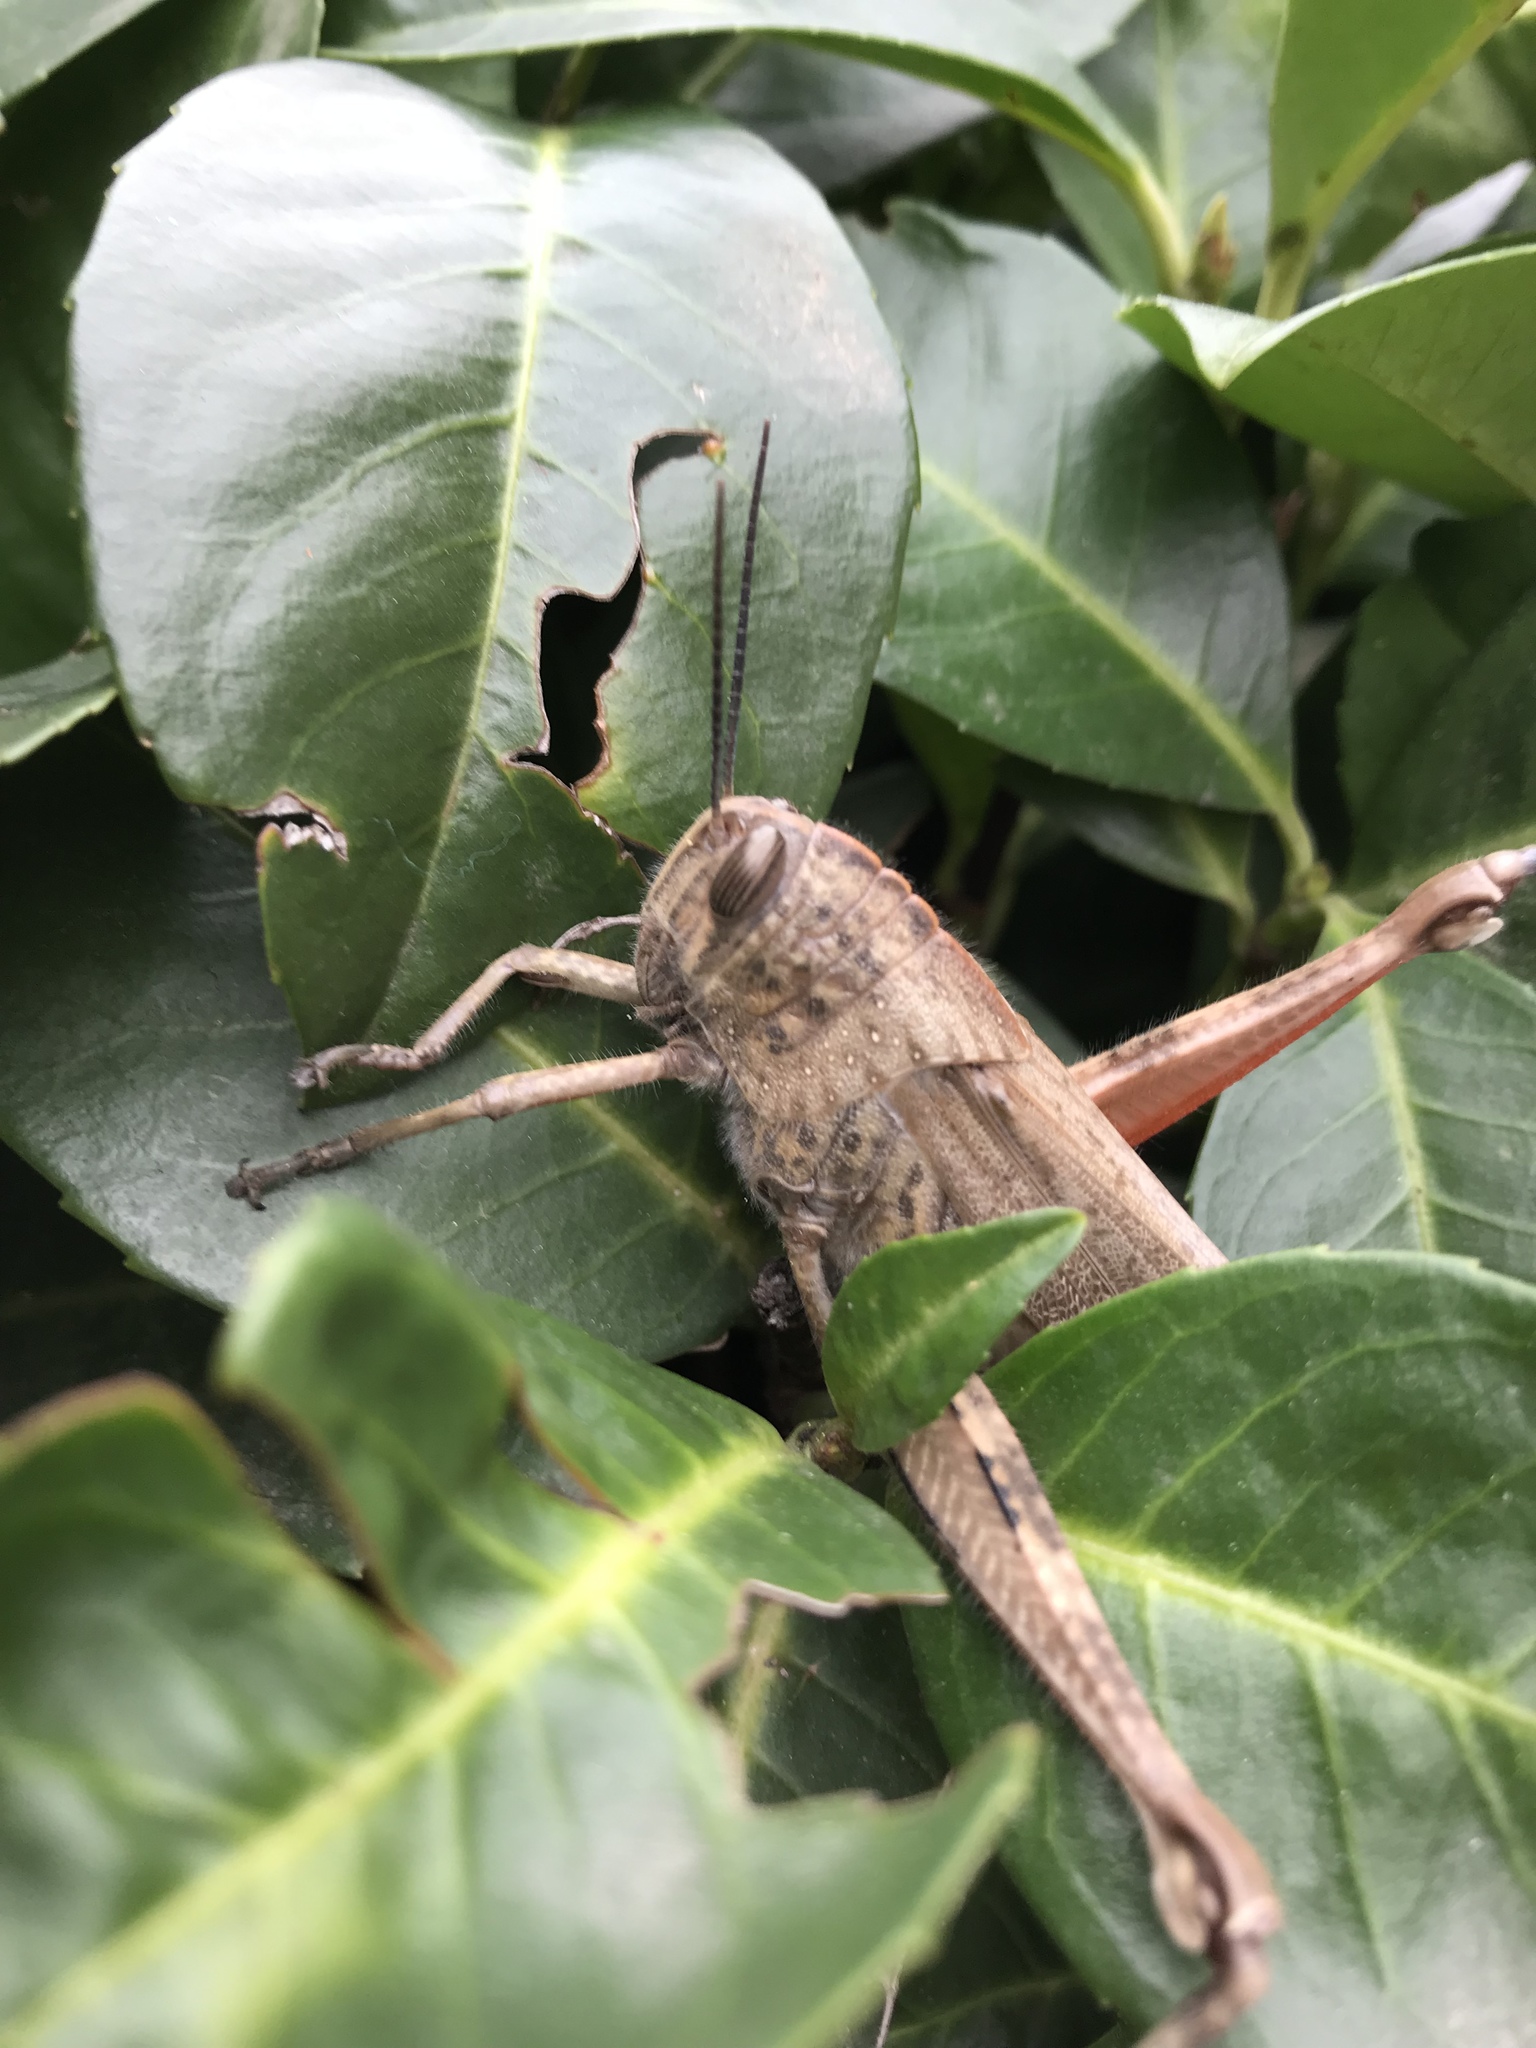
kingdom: Animalia
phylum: Arthropoda
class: Insecta
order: Orthoptera
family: Acrididae
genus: Anacridium
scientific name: Anacridium aegyptium
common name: Egyptian grasshopper
